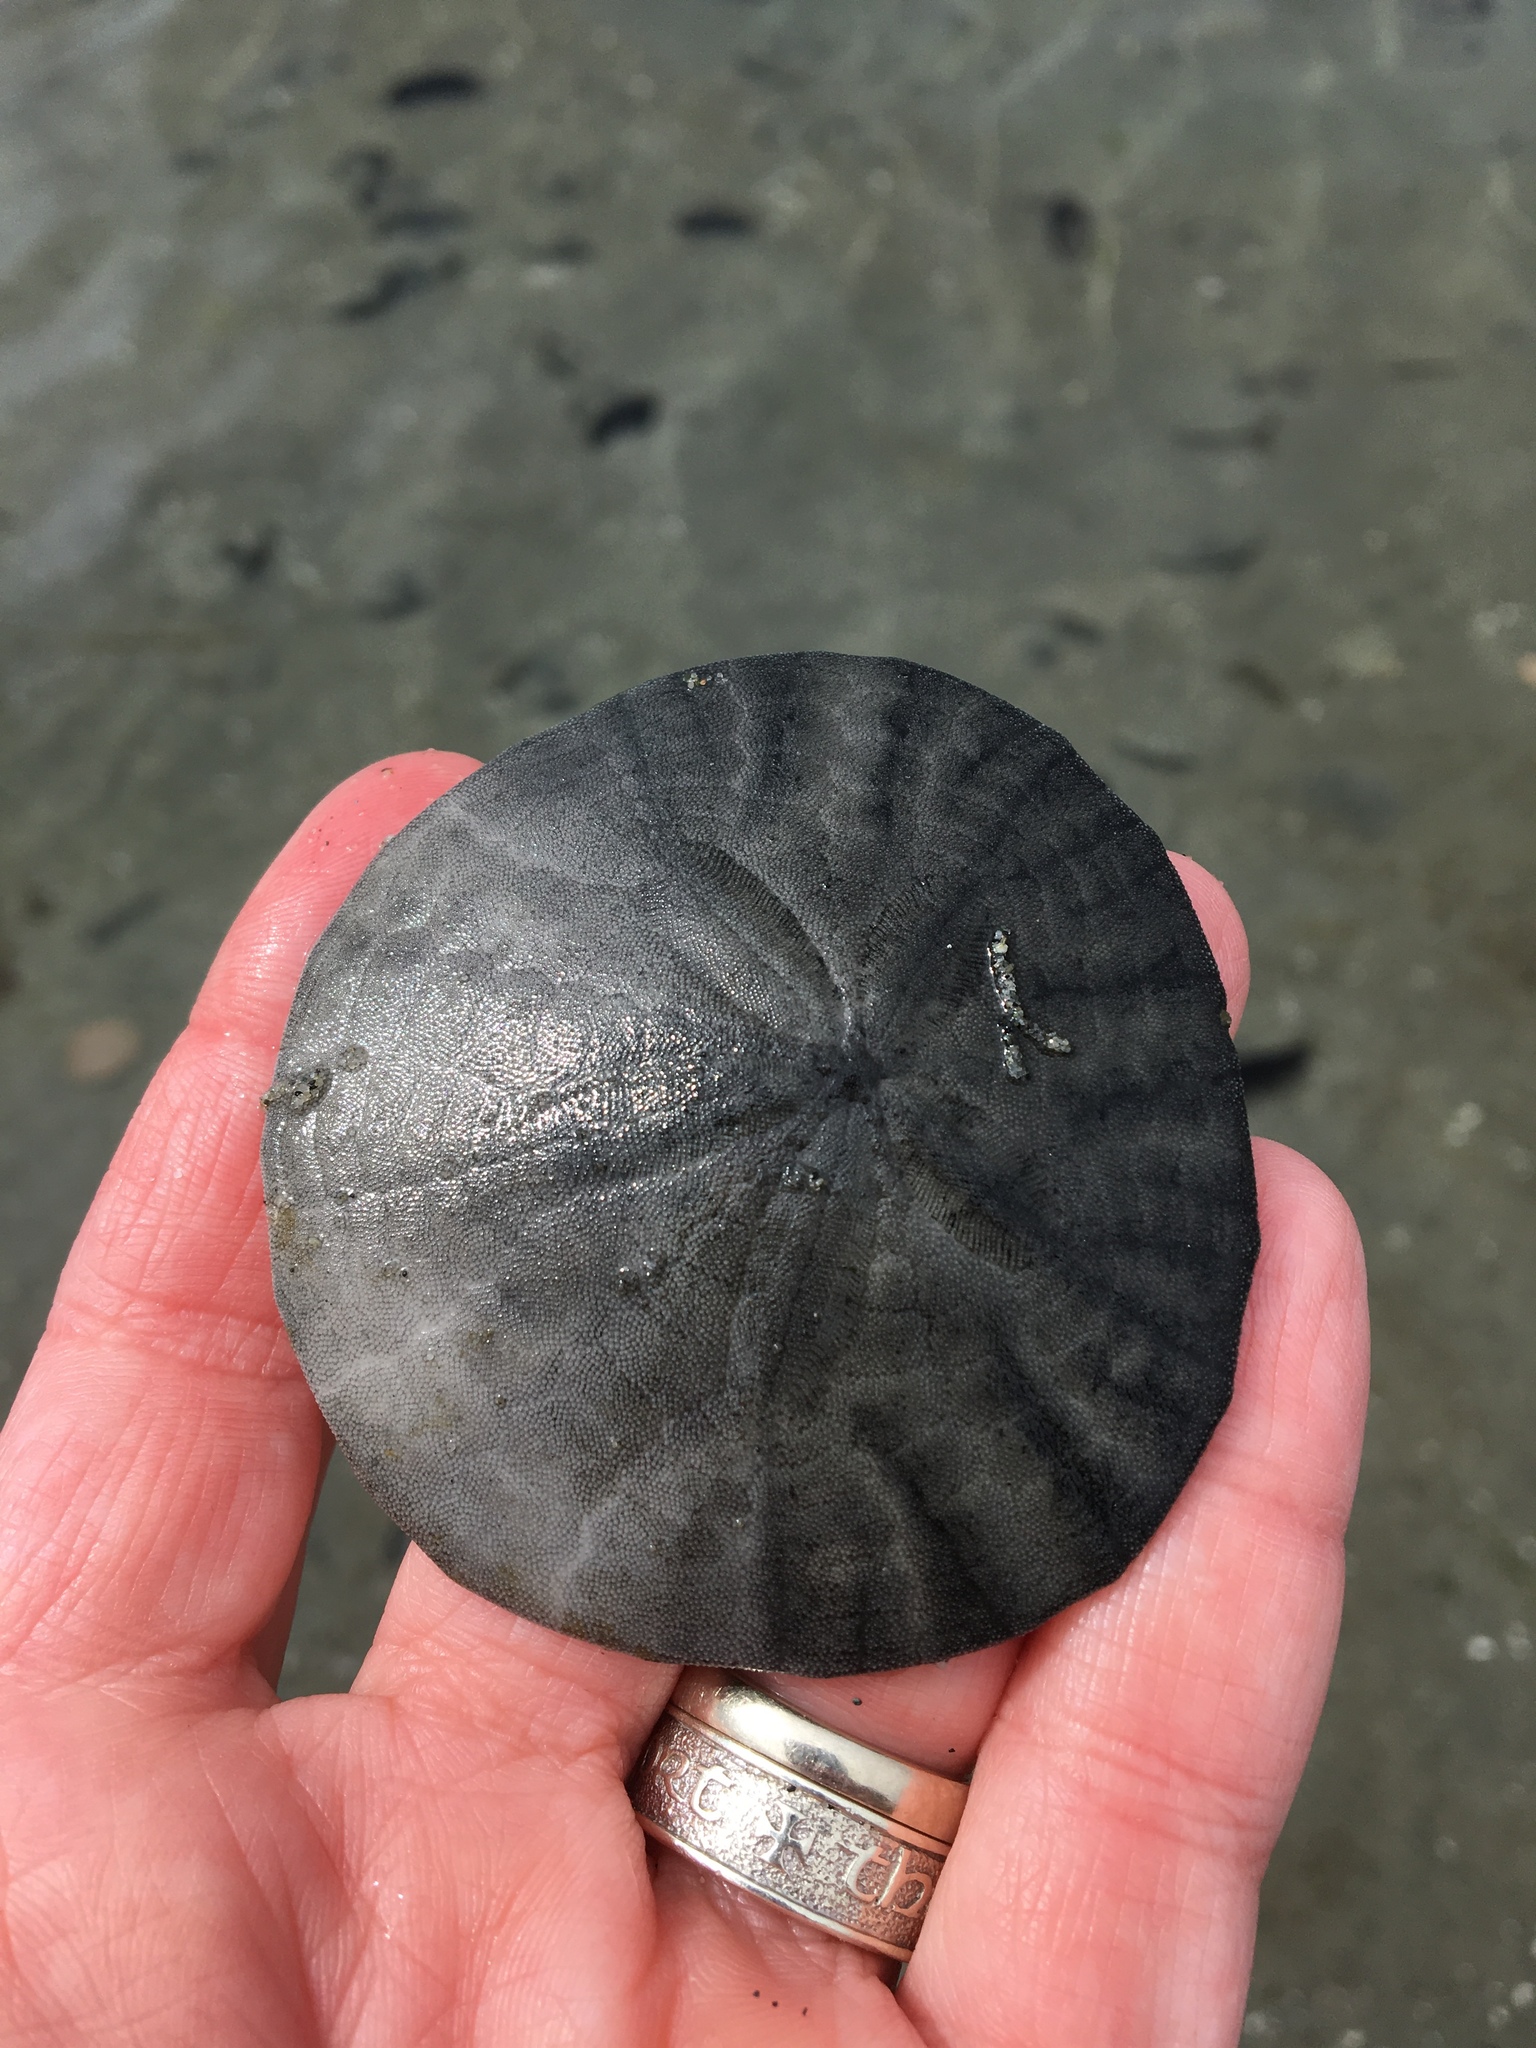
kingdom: Animalia
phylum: Echinodermata
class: Echinoidea
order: Echinolampadacea
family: Dendrasteridae
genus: Dendraster
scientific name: Dendraster excentricus
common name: Eccentric sand dollar sea urchin
